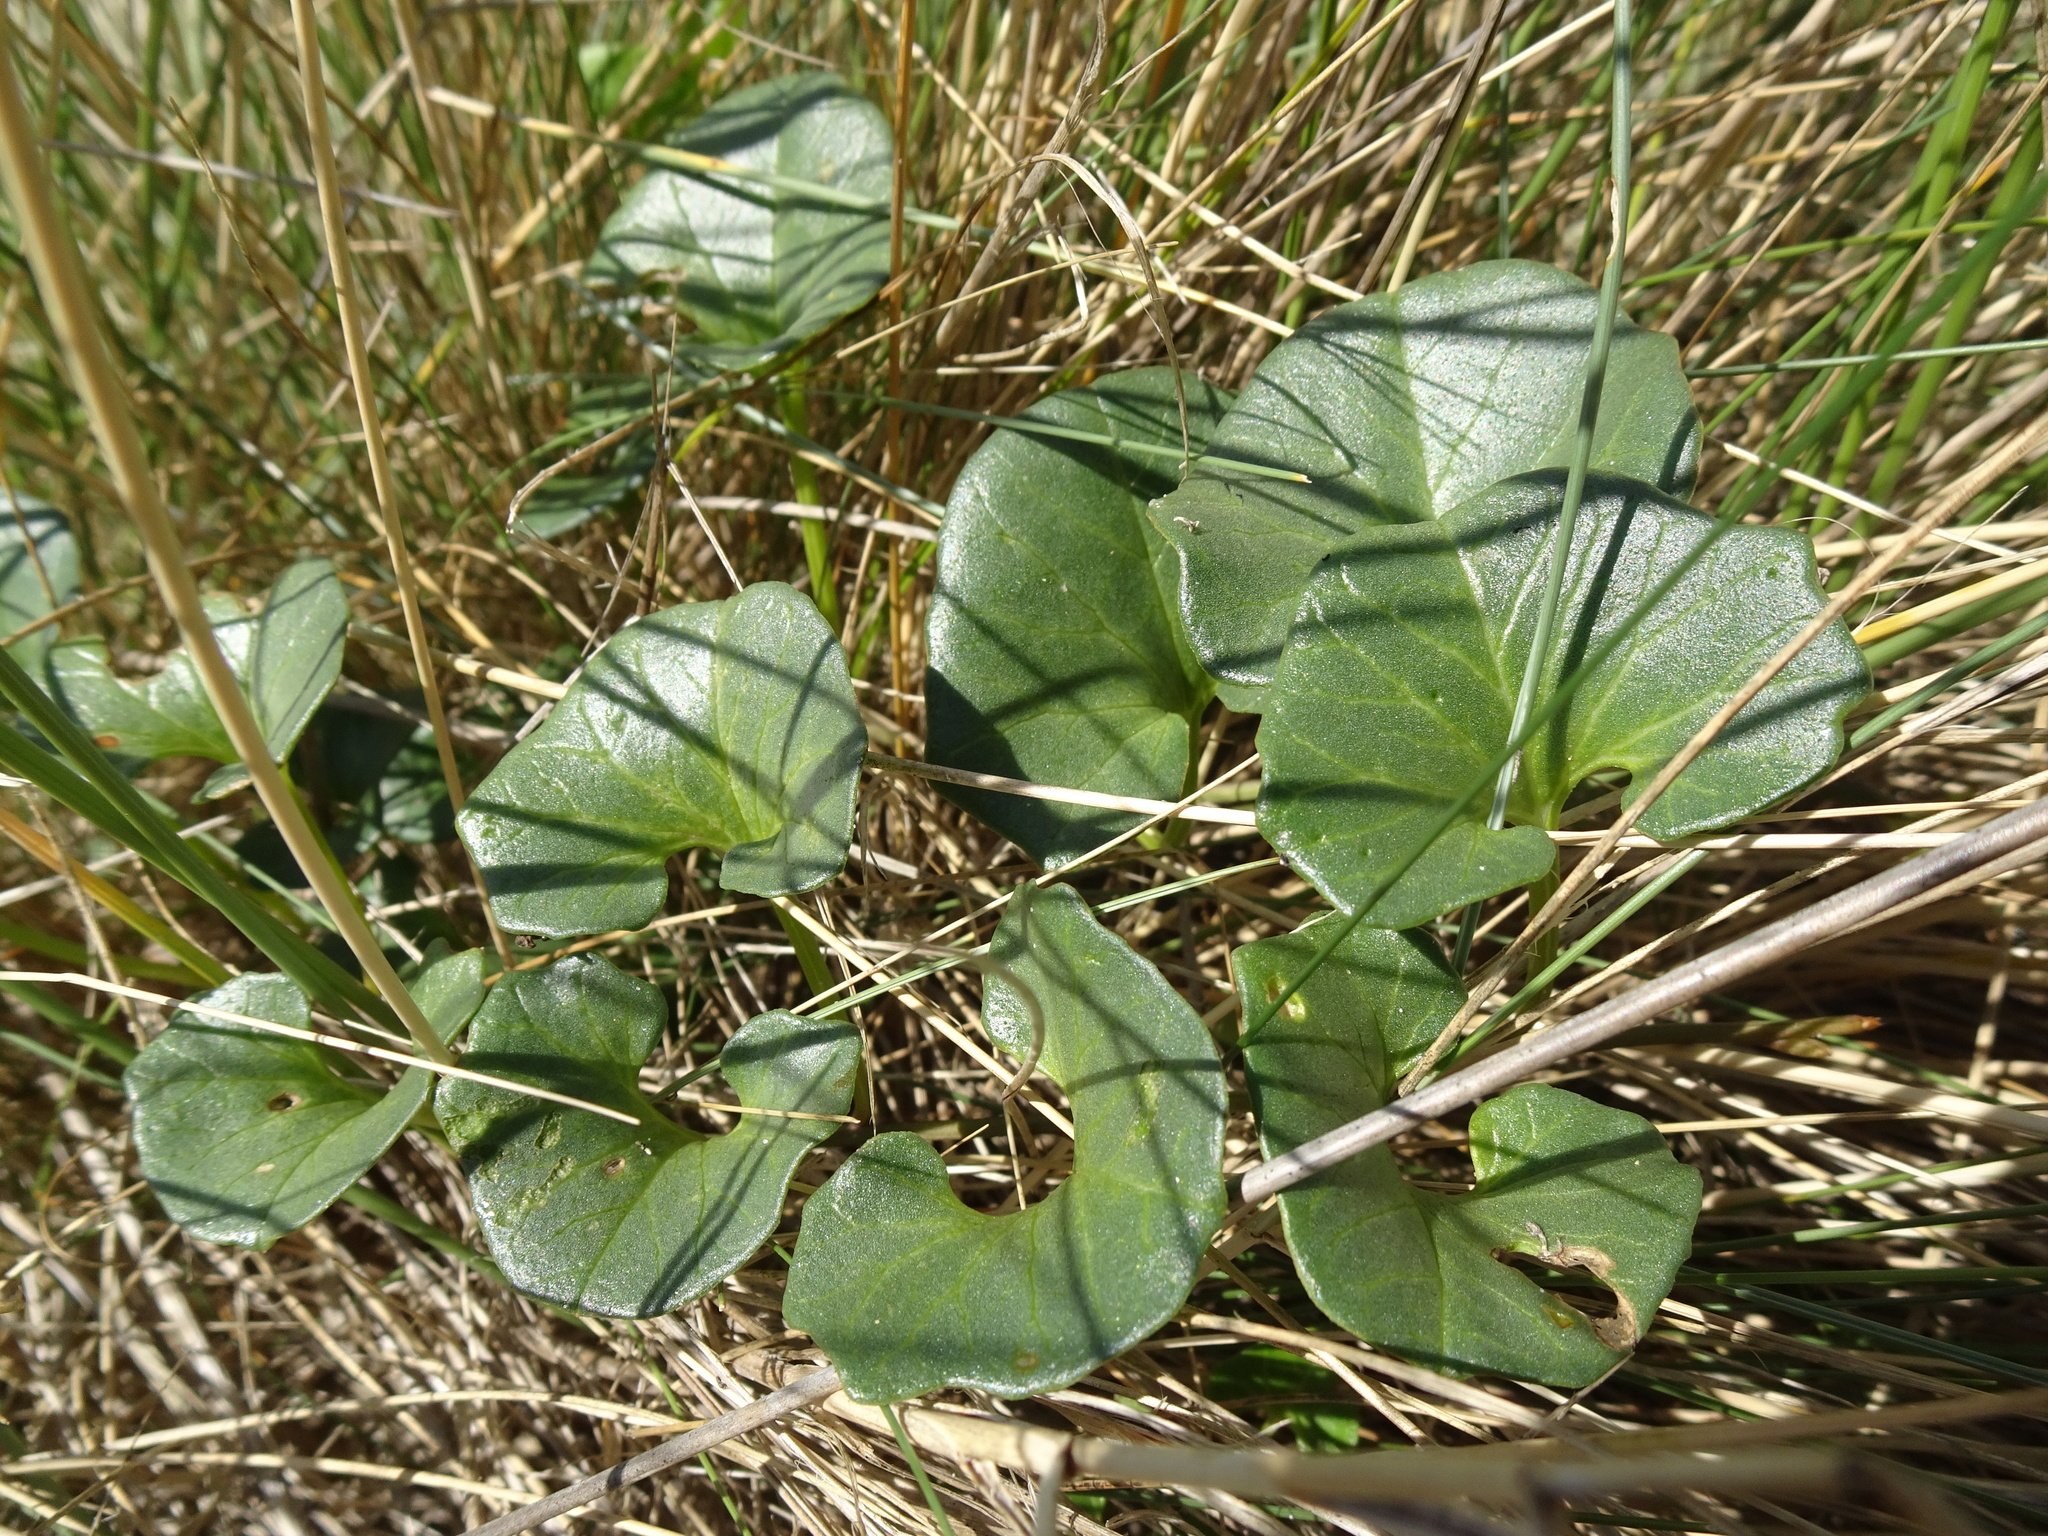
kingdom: Plantae
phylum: Tracheophyta
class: Magnoliopsida
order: Solanales
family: Convolvulaceae
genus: Calystegia
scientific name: Calystegia soldanella
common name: Sea bindweed
